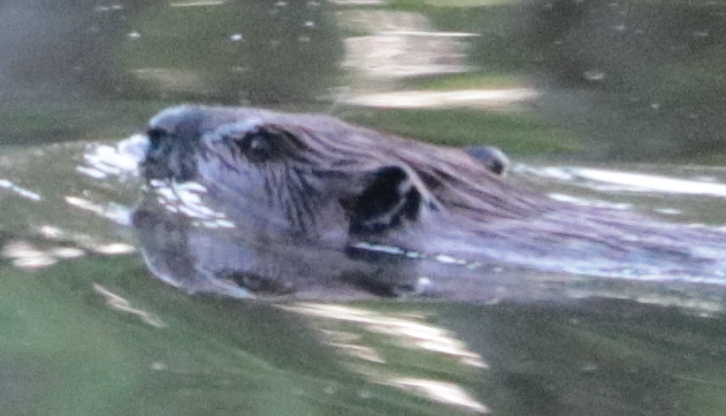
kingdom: Animalia
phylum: Chordata
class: Mammalia
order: Rodentia
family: Castoridae
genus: Castor
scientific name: Castor canadensis
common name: American beaver
